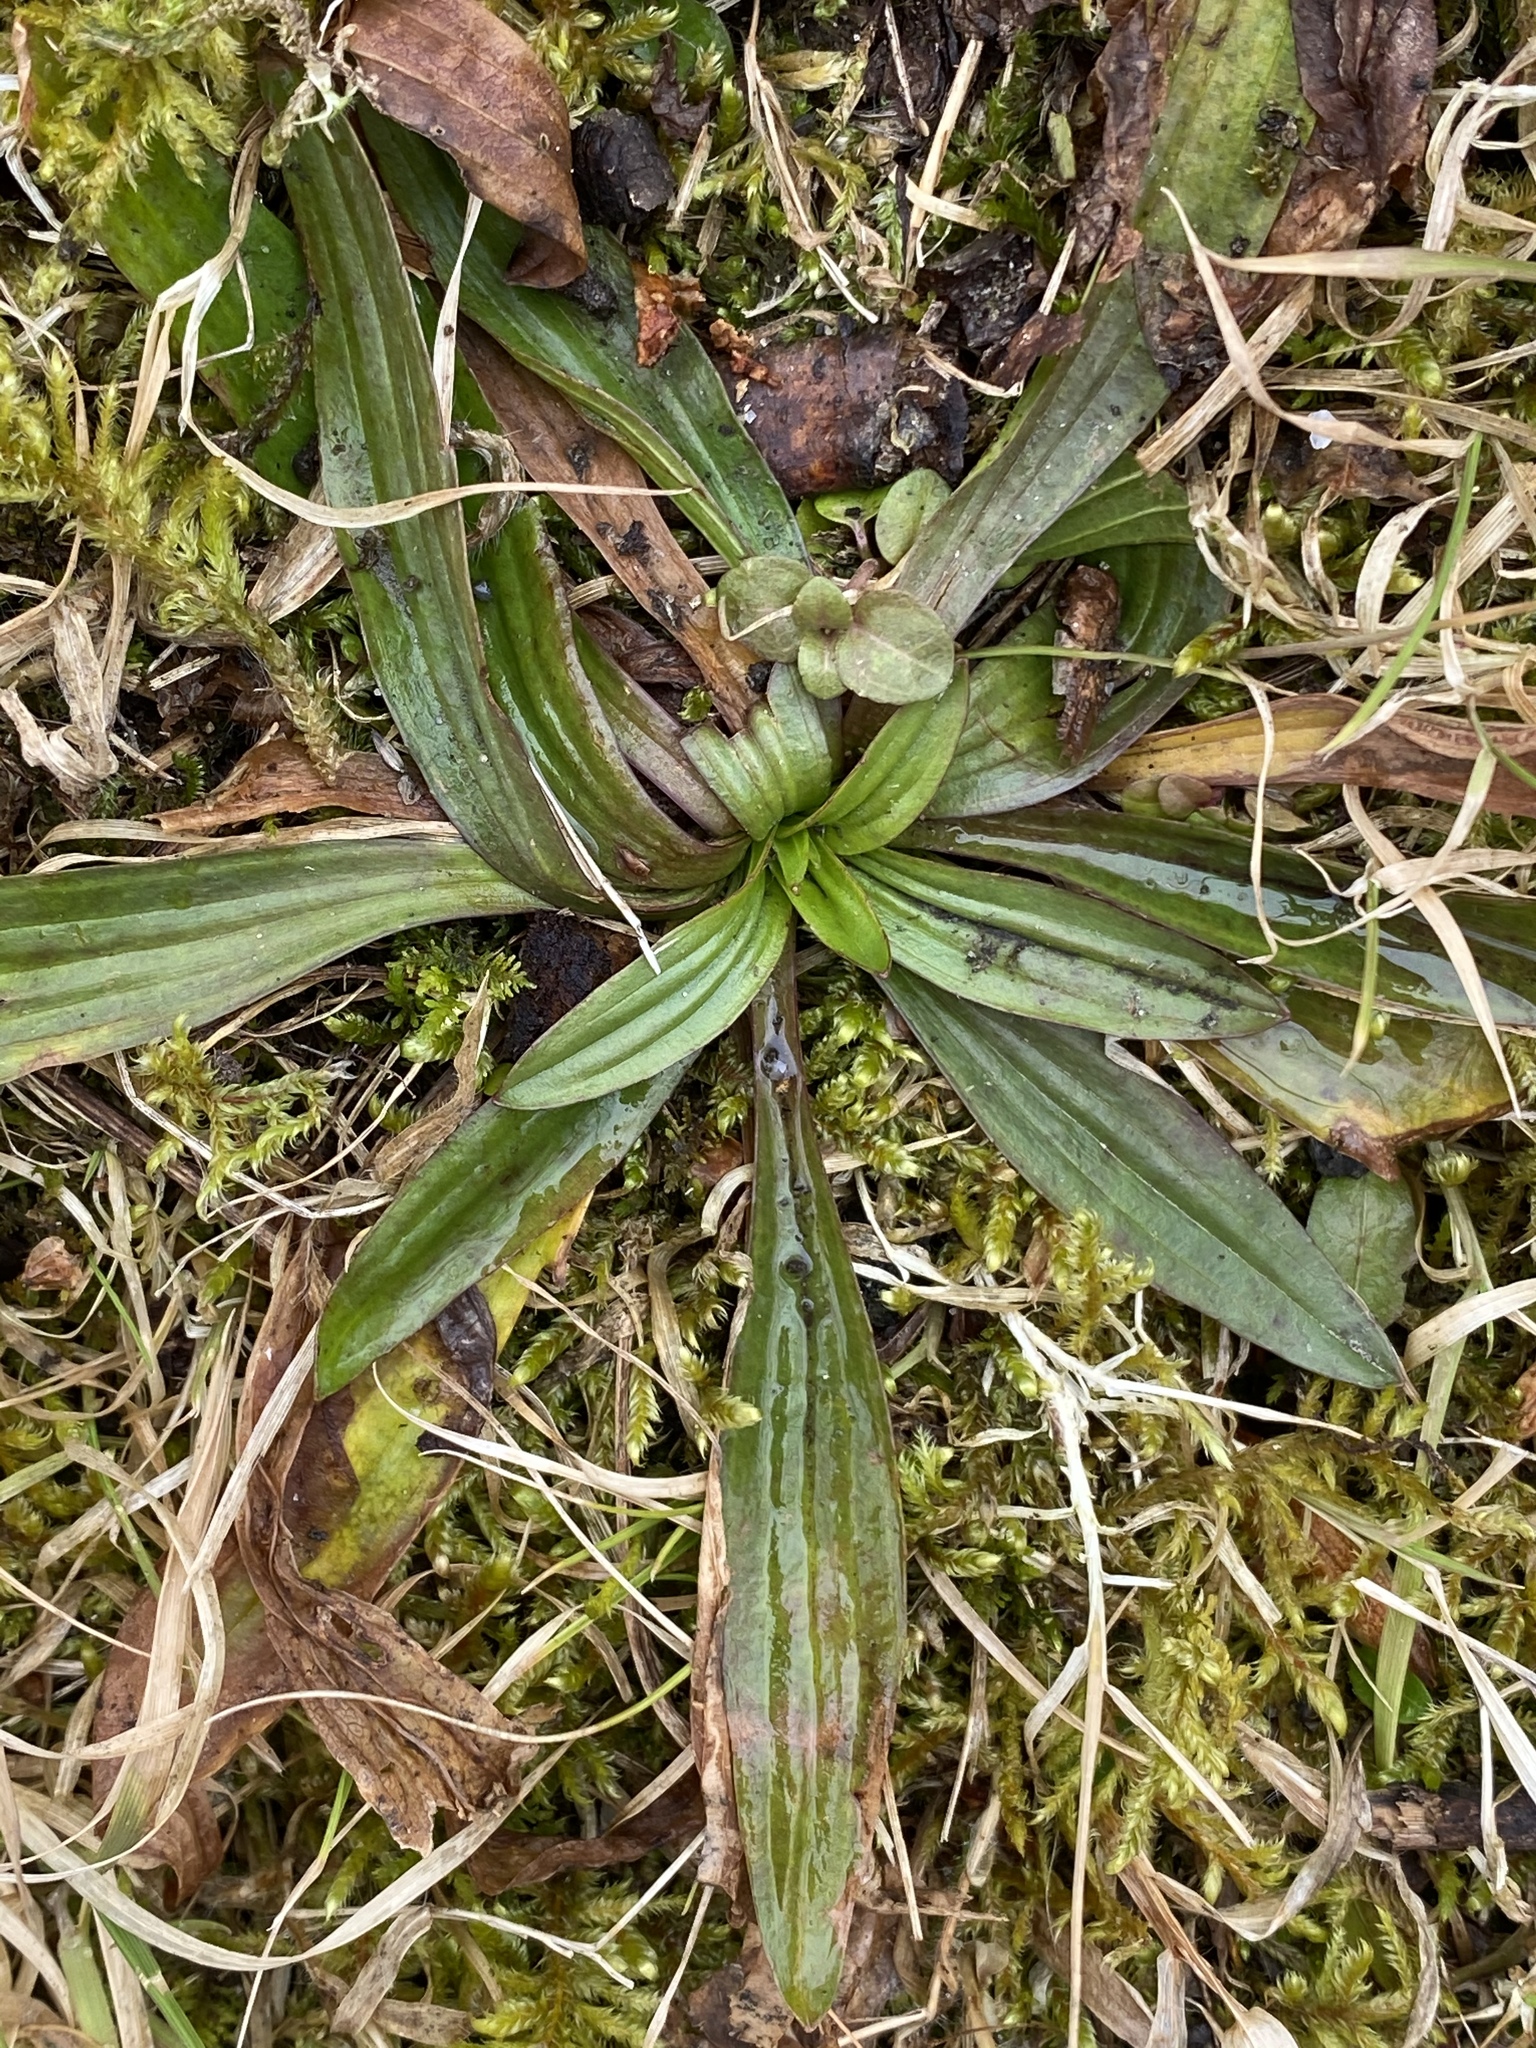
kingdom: Plantae
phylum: Tracheophyta
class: Magnoliopsida
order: Lamiales
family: Plantaginaceae
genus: Plantago
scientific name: Plantago lanceolata
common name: Ribwort plantain
